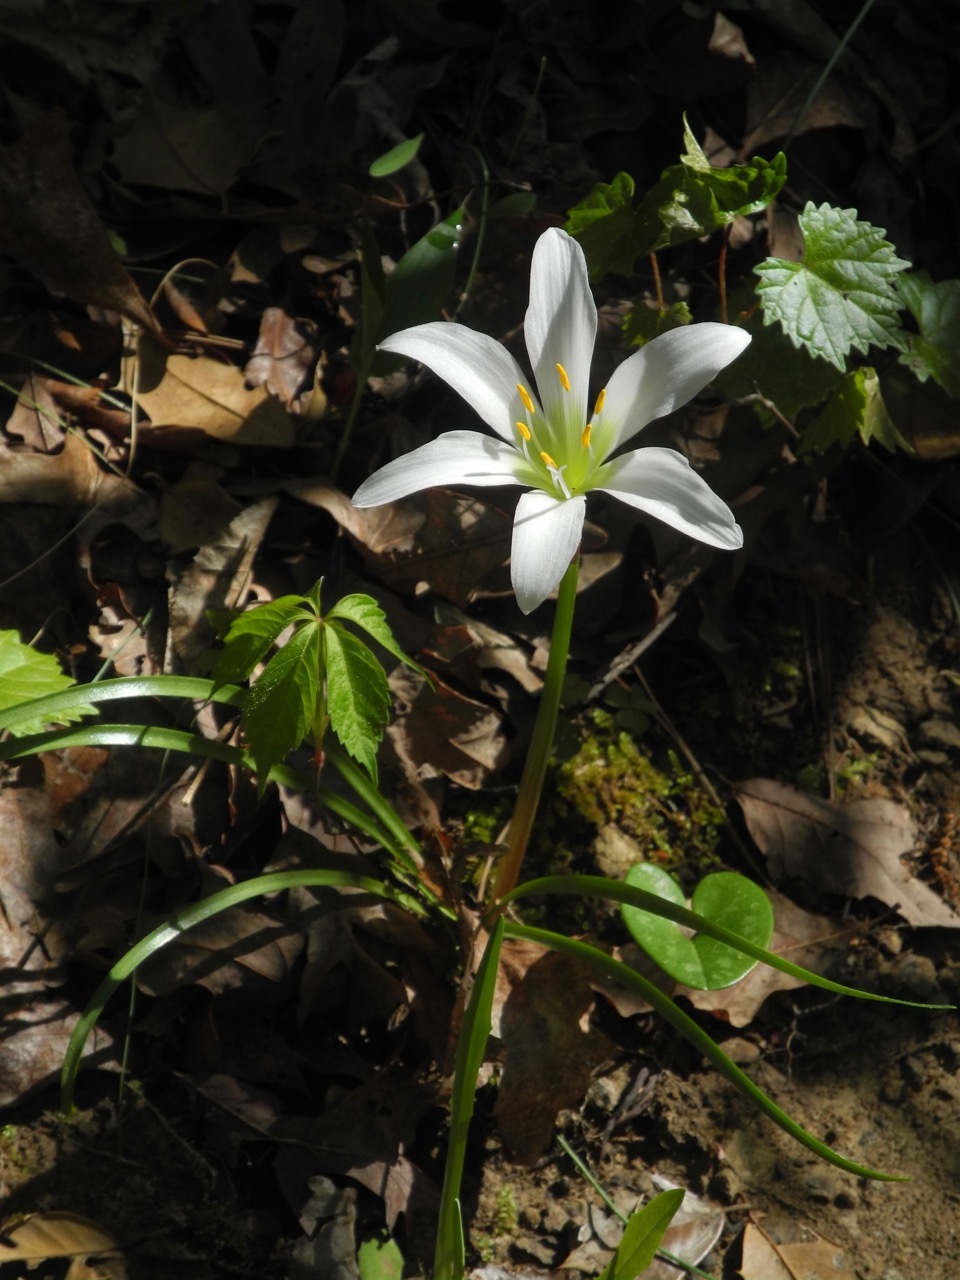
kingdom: Plantae
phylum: Tracheophyta
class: Liliopsida
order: Asparagales
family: Amaryllidaceae
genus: Zephyranthes
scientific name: Zephyranthes atamasco
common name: Atamasco lily
